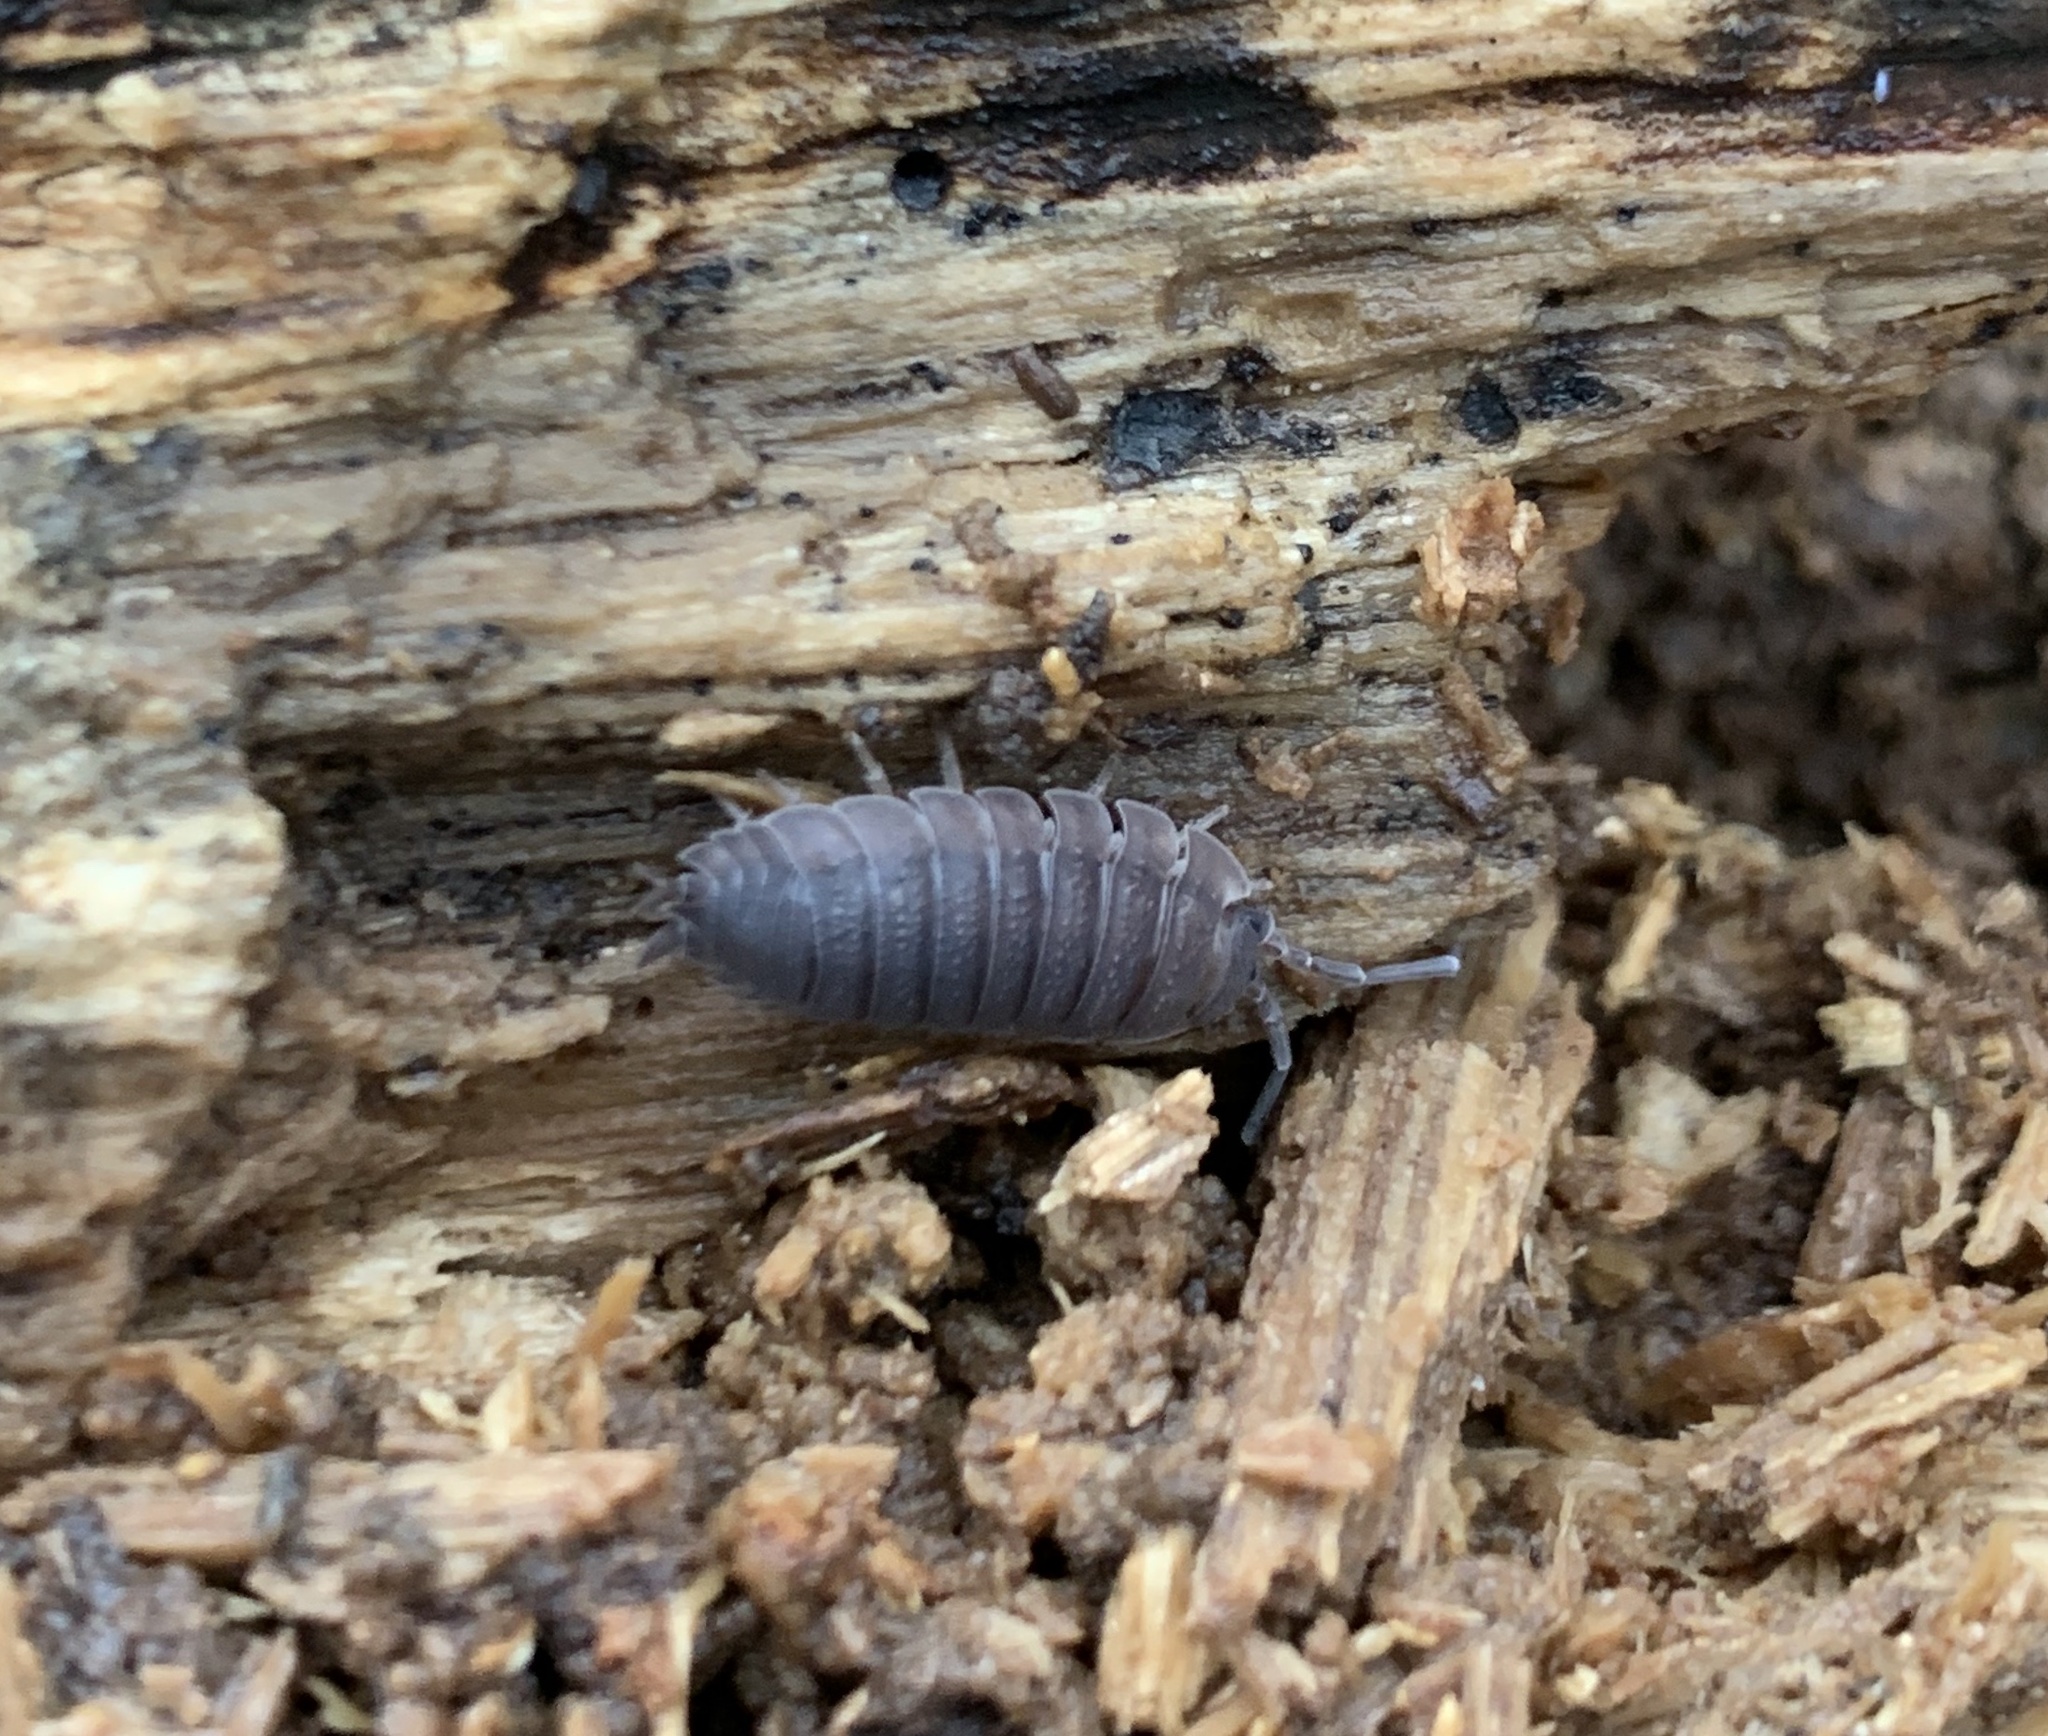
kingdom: Animalia
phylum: Arthropoda
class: Malacostraca
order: Isopoda
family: Porcellionidae
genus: Porcellio
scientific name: Porcellio scaber
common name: Common rough woodlouse
